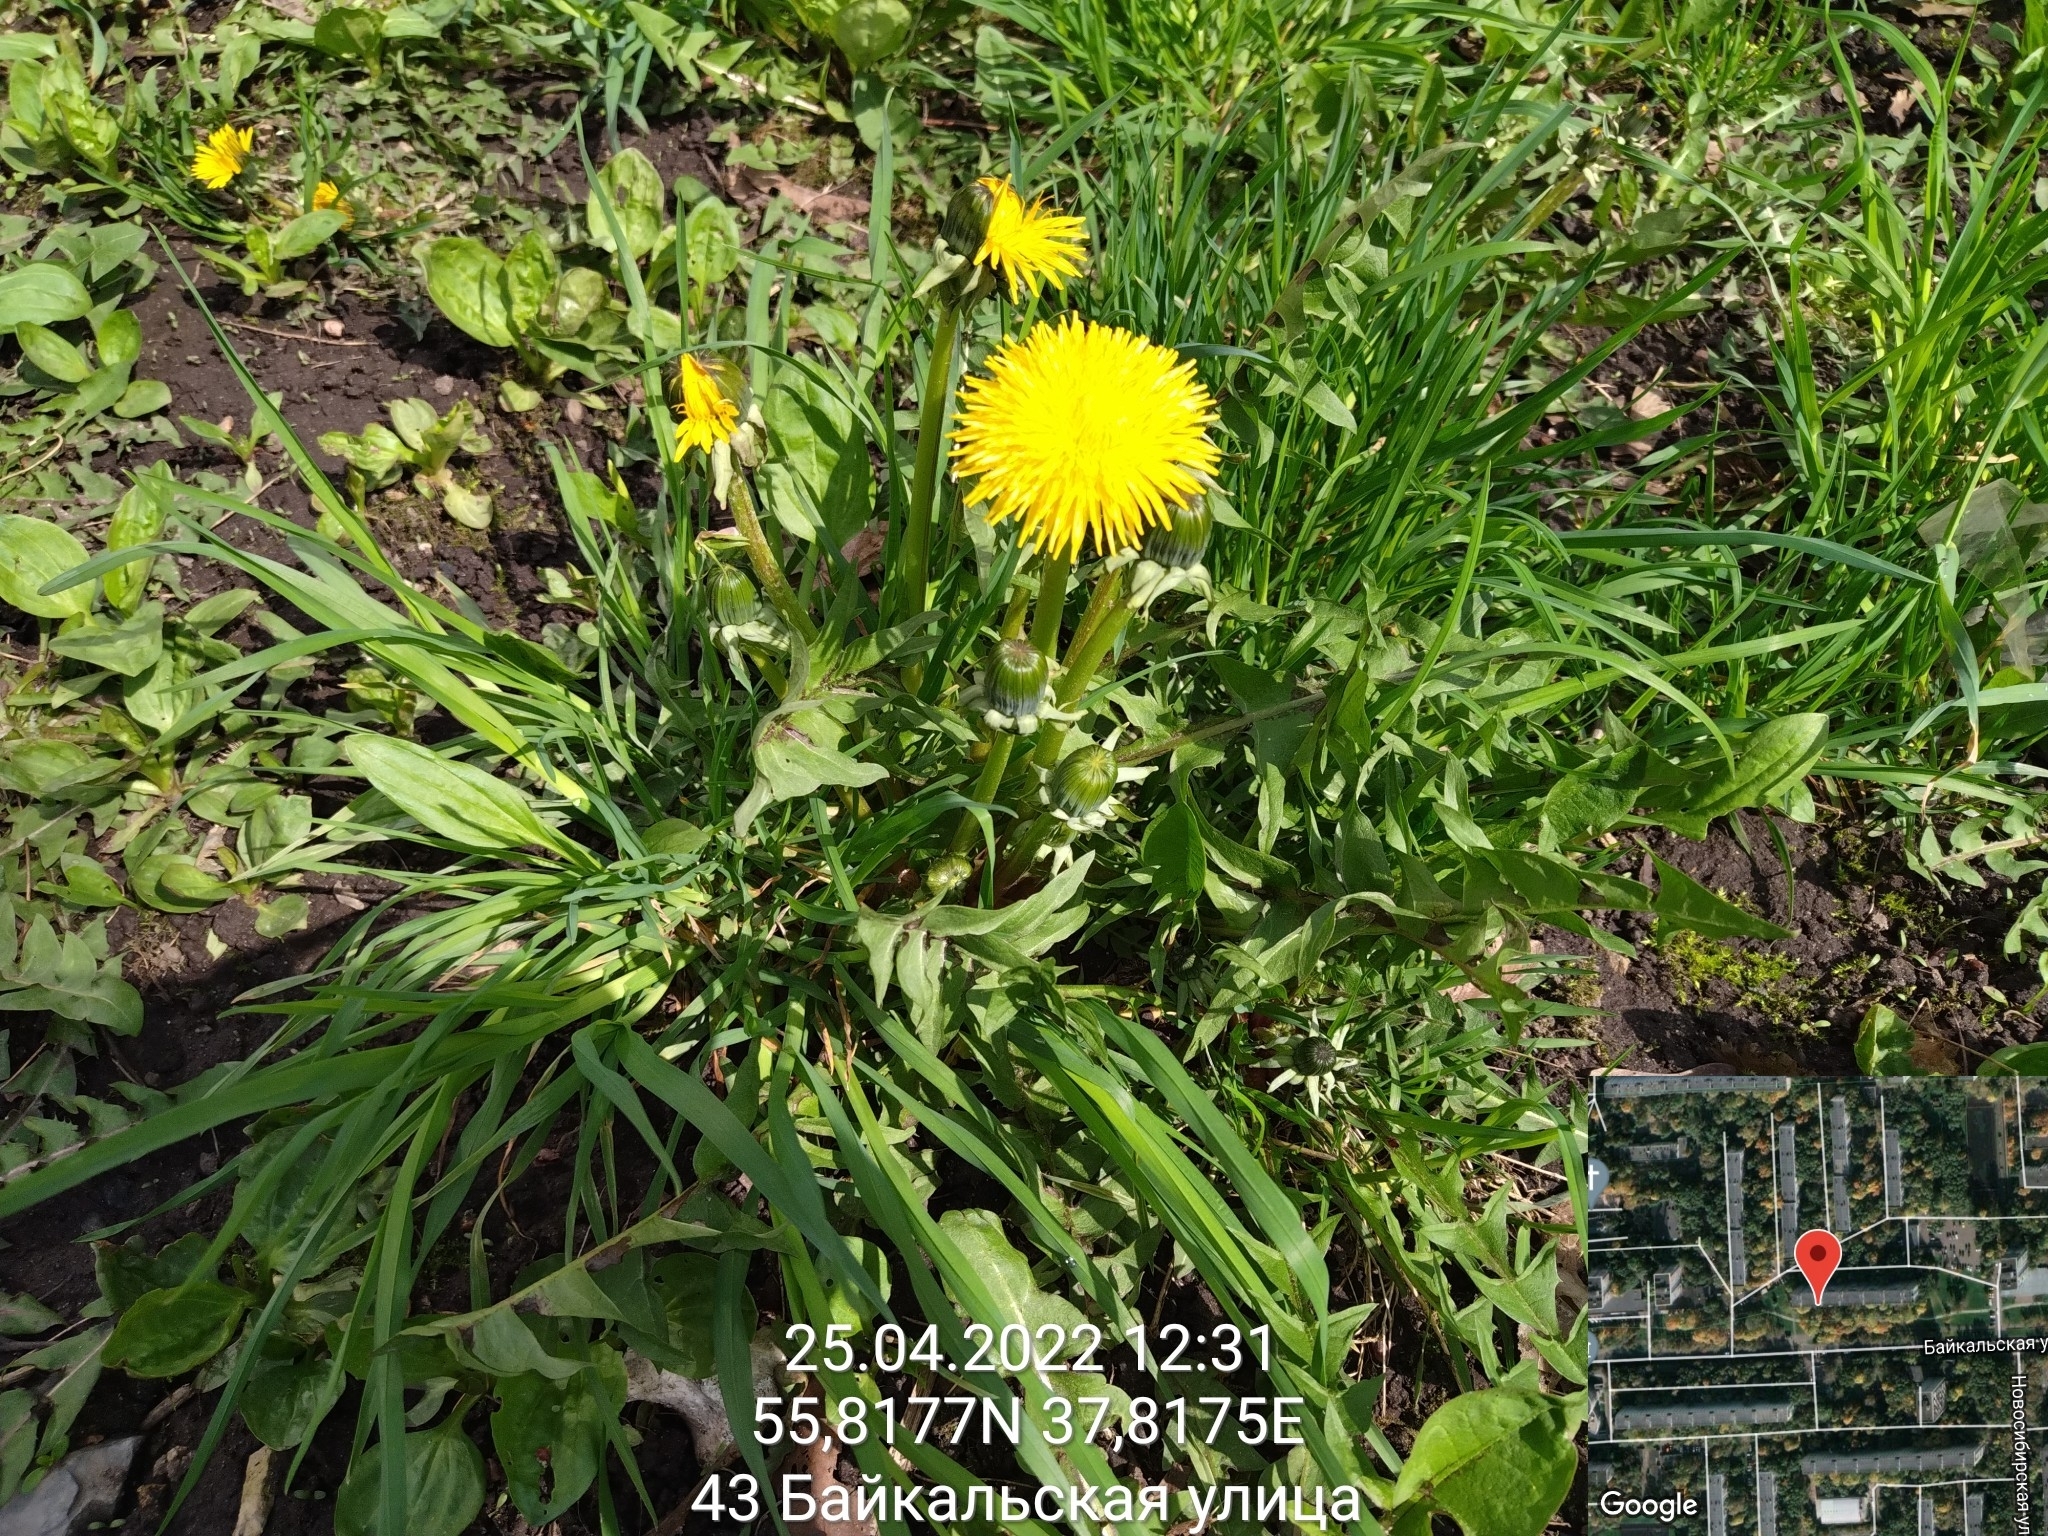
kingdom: Plantae
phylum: Tracheophyta
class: Magnoliopsida
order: Asterales
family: Asteraceae
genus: Taraxacum
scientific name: Taraxacum officinale
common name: Common dandelion
